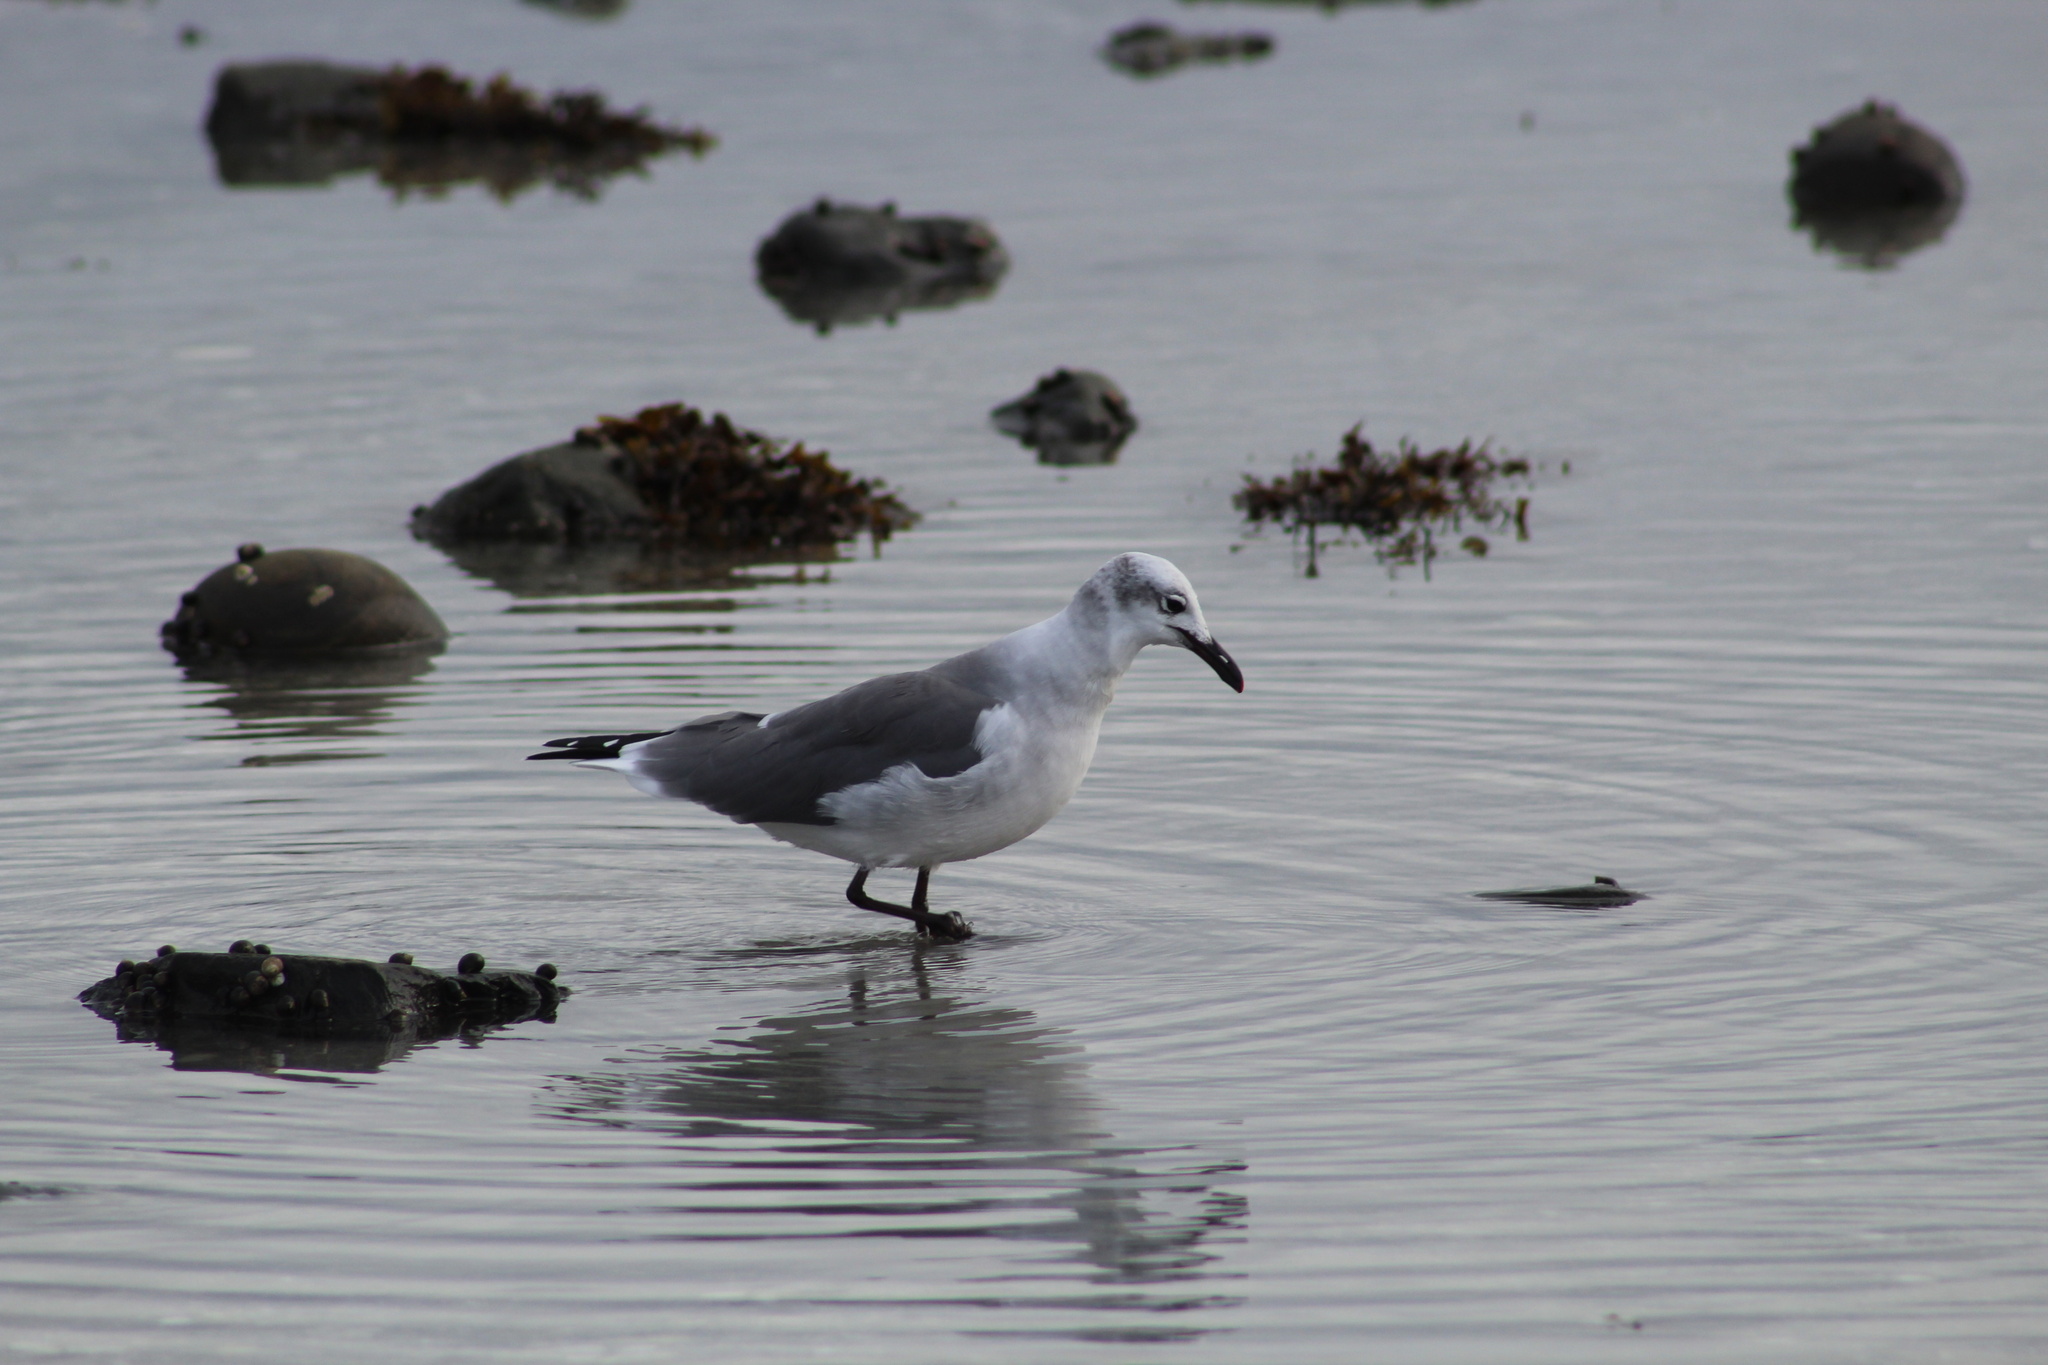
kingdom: Animalia
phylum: Chordata
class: Aves
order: Charadriiformes
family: Laridae
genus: Leucophaeus
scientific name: Leucophaeus atricilla
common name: Laughing gull
